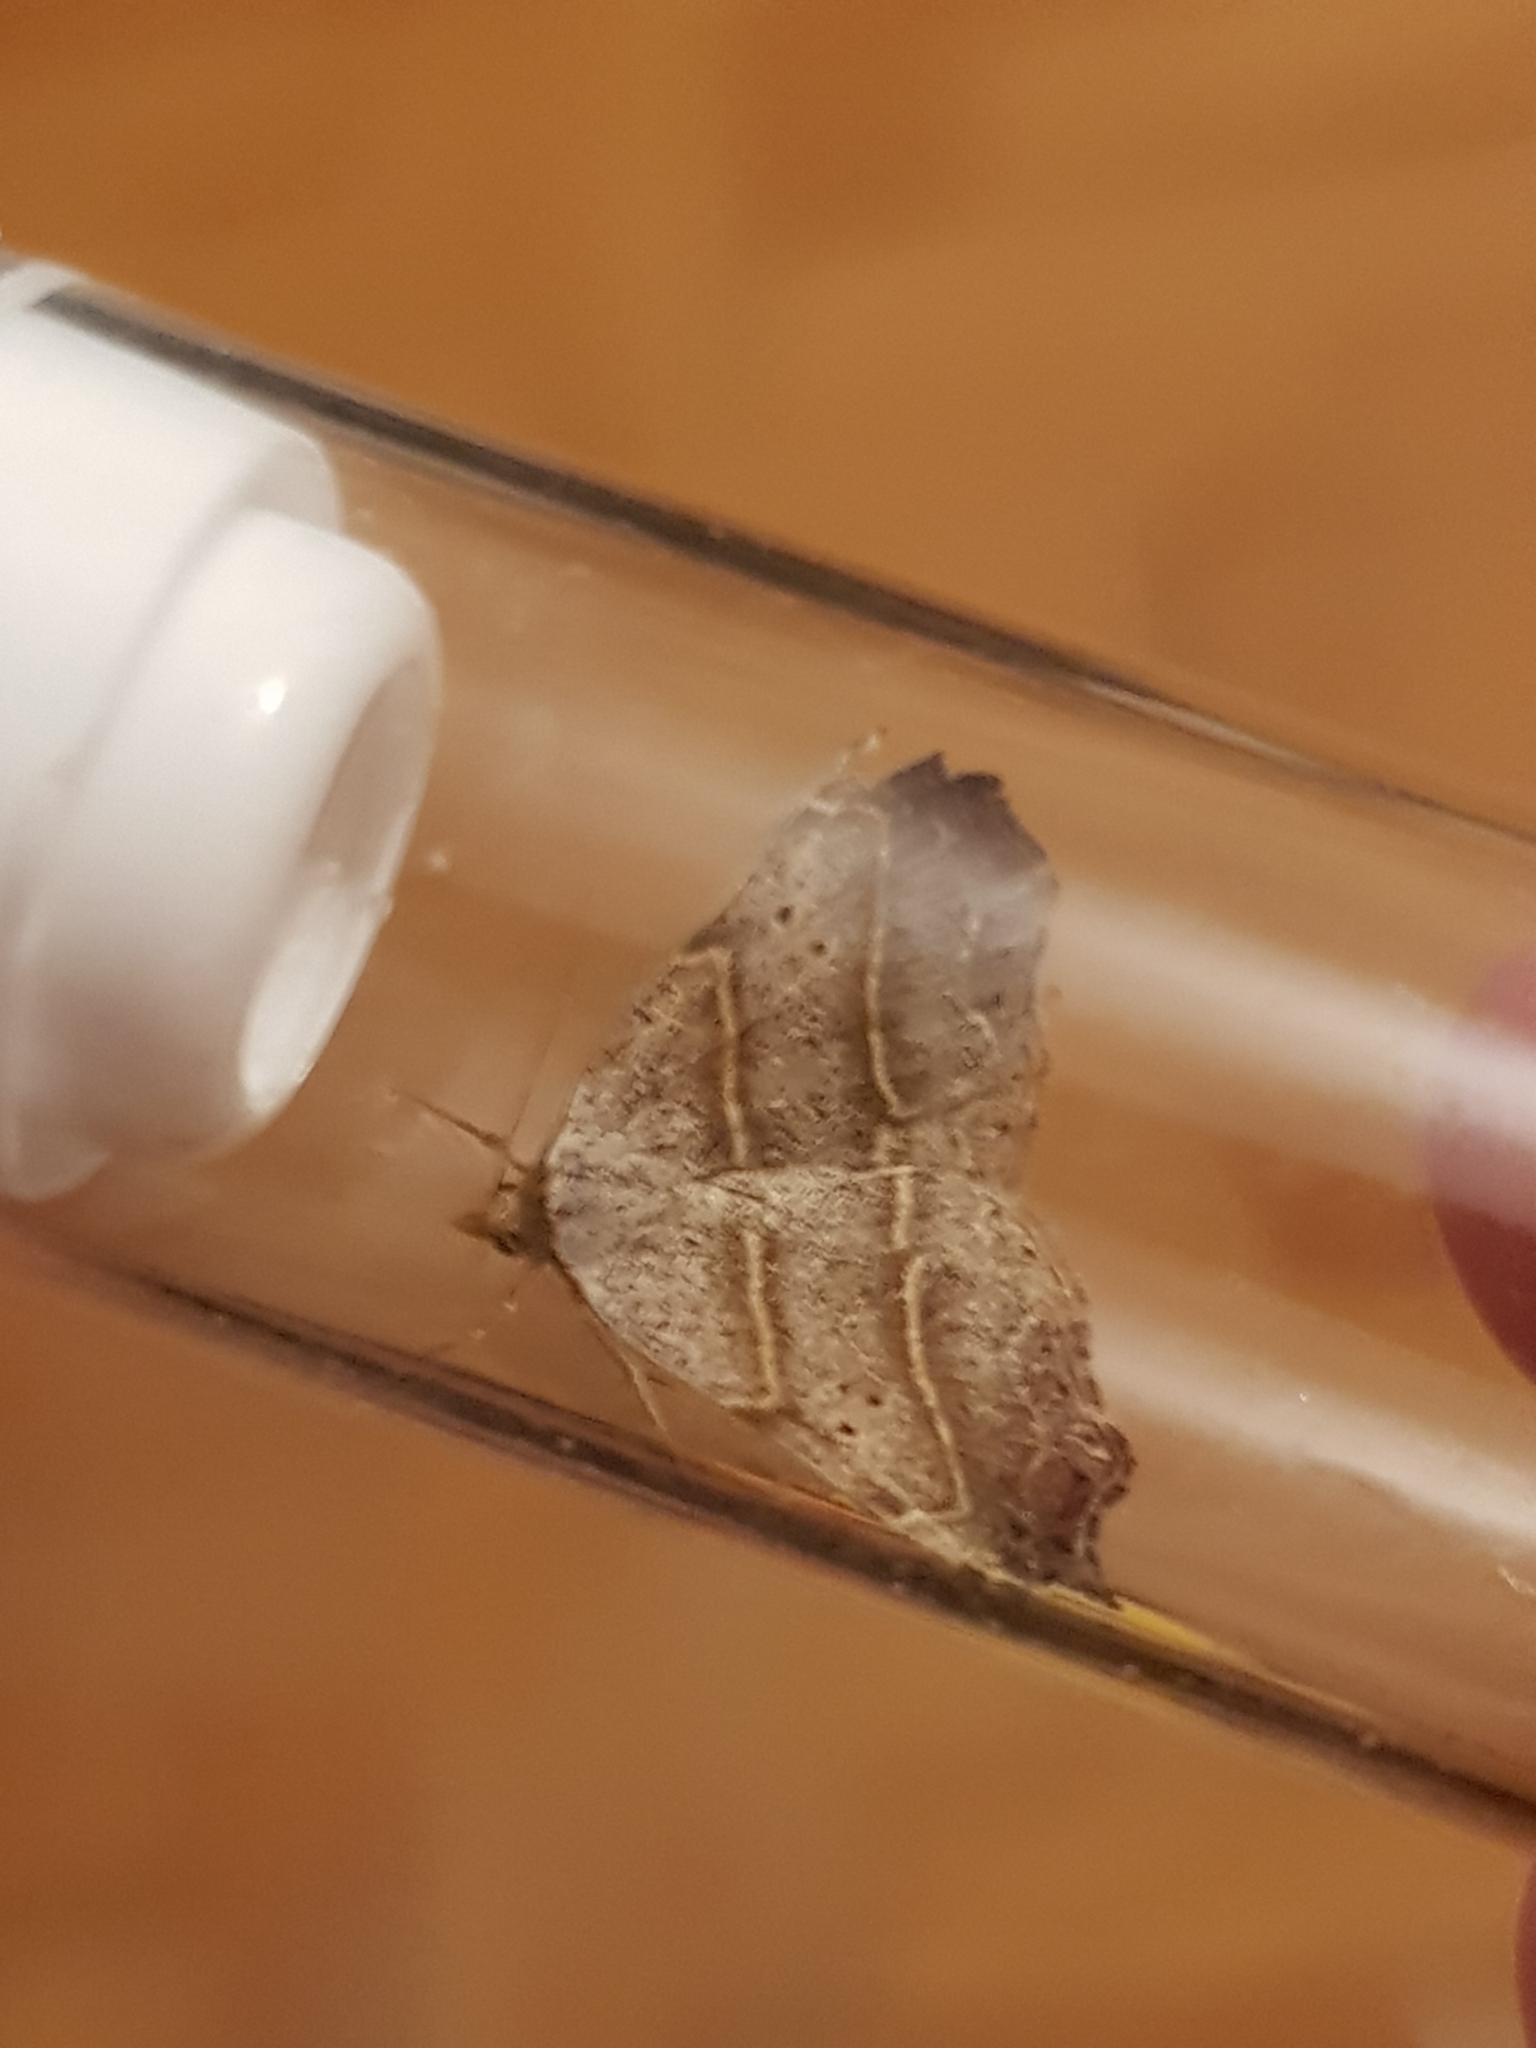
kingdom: Animalia
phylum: Arthropoda
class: Insecta
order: Lepidoptera
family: Erebidae
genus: Laspeyria
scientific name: Laspeyria flexula
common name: Beautiful hook-tip
